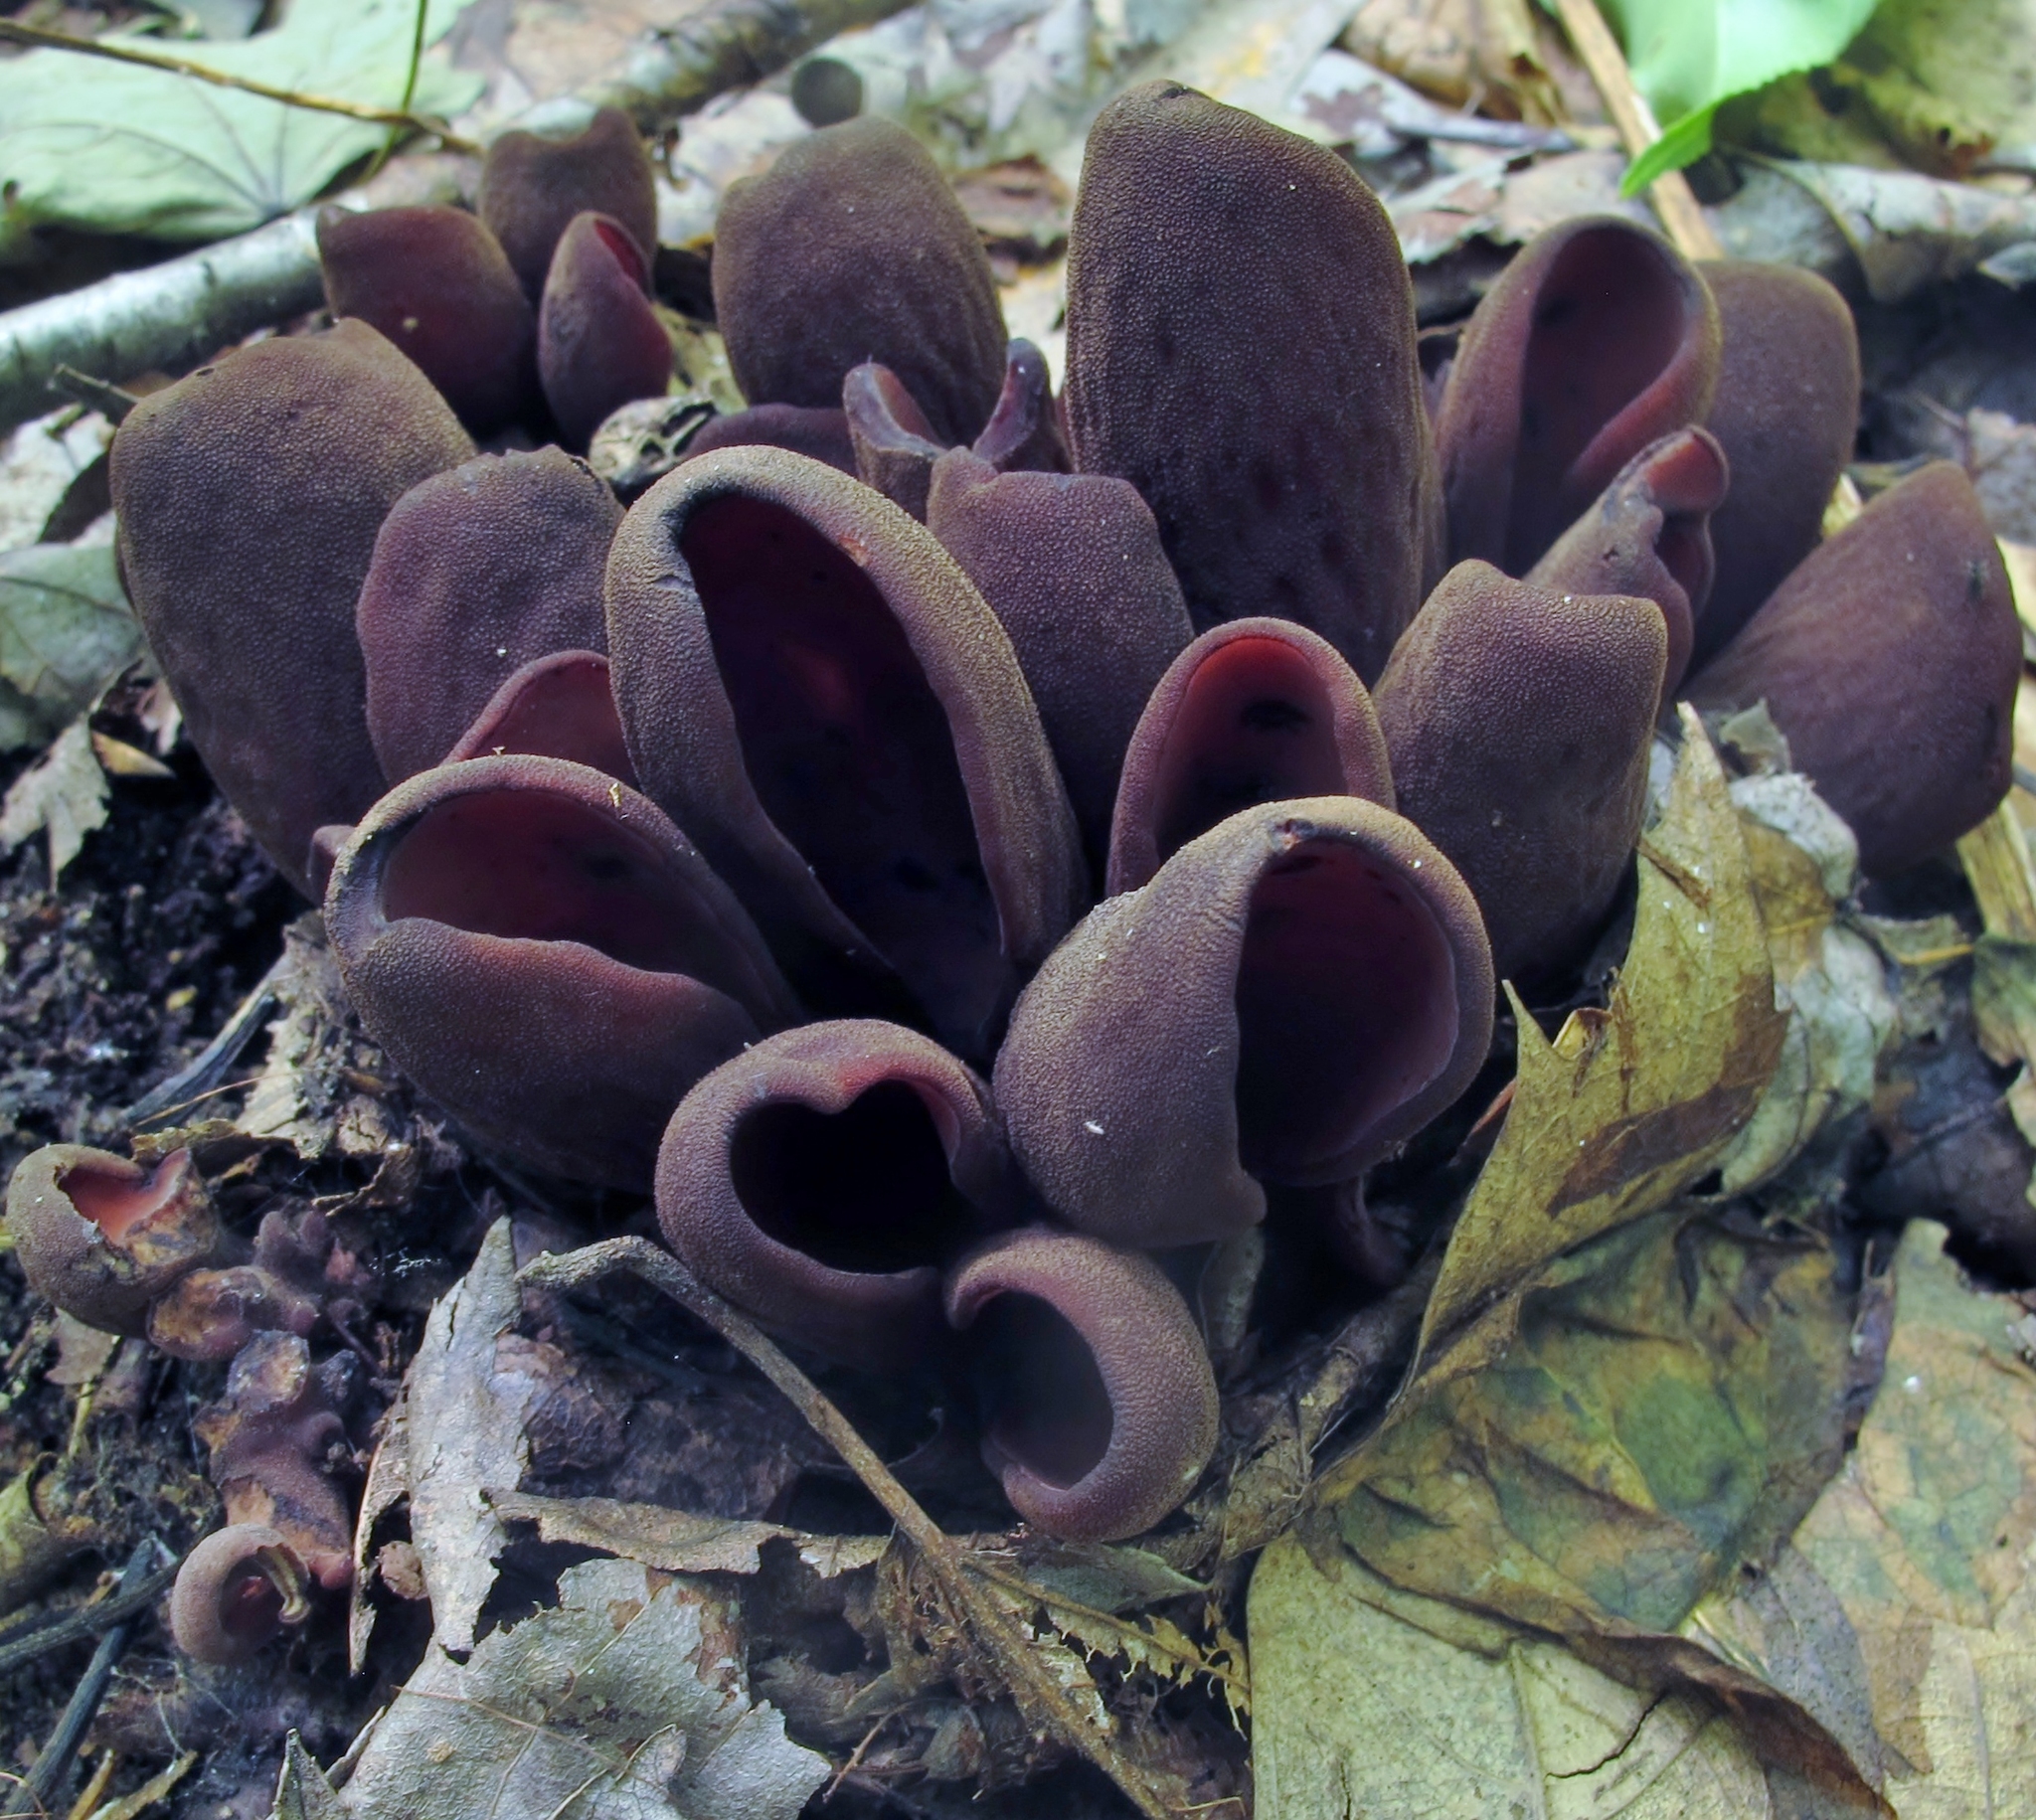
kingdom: Fungi
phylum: Ascomycota
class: Pezizomycetes
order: Pezizales
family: Wynneaceae
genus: Wynnea
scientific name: Wynnea americana
